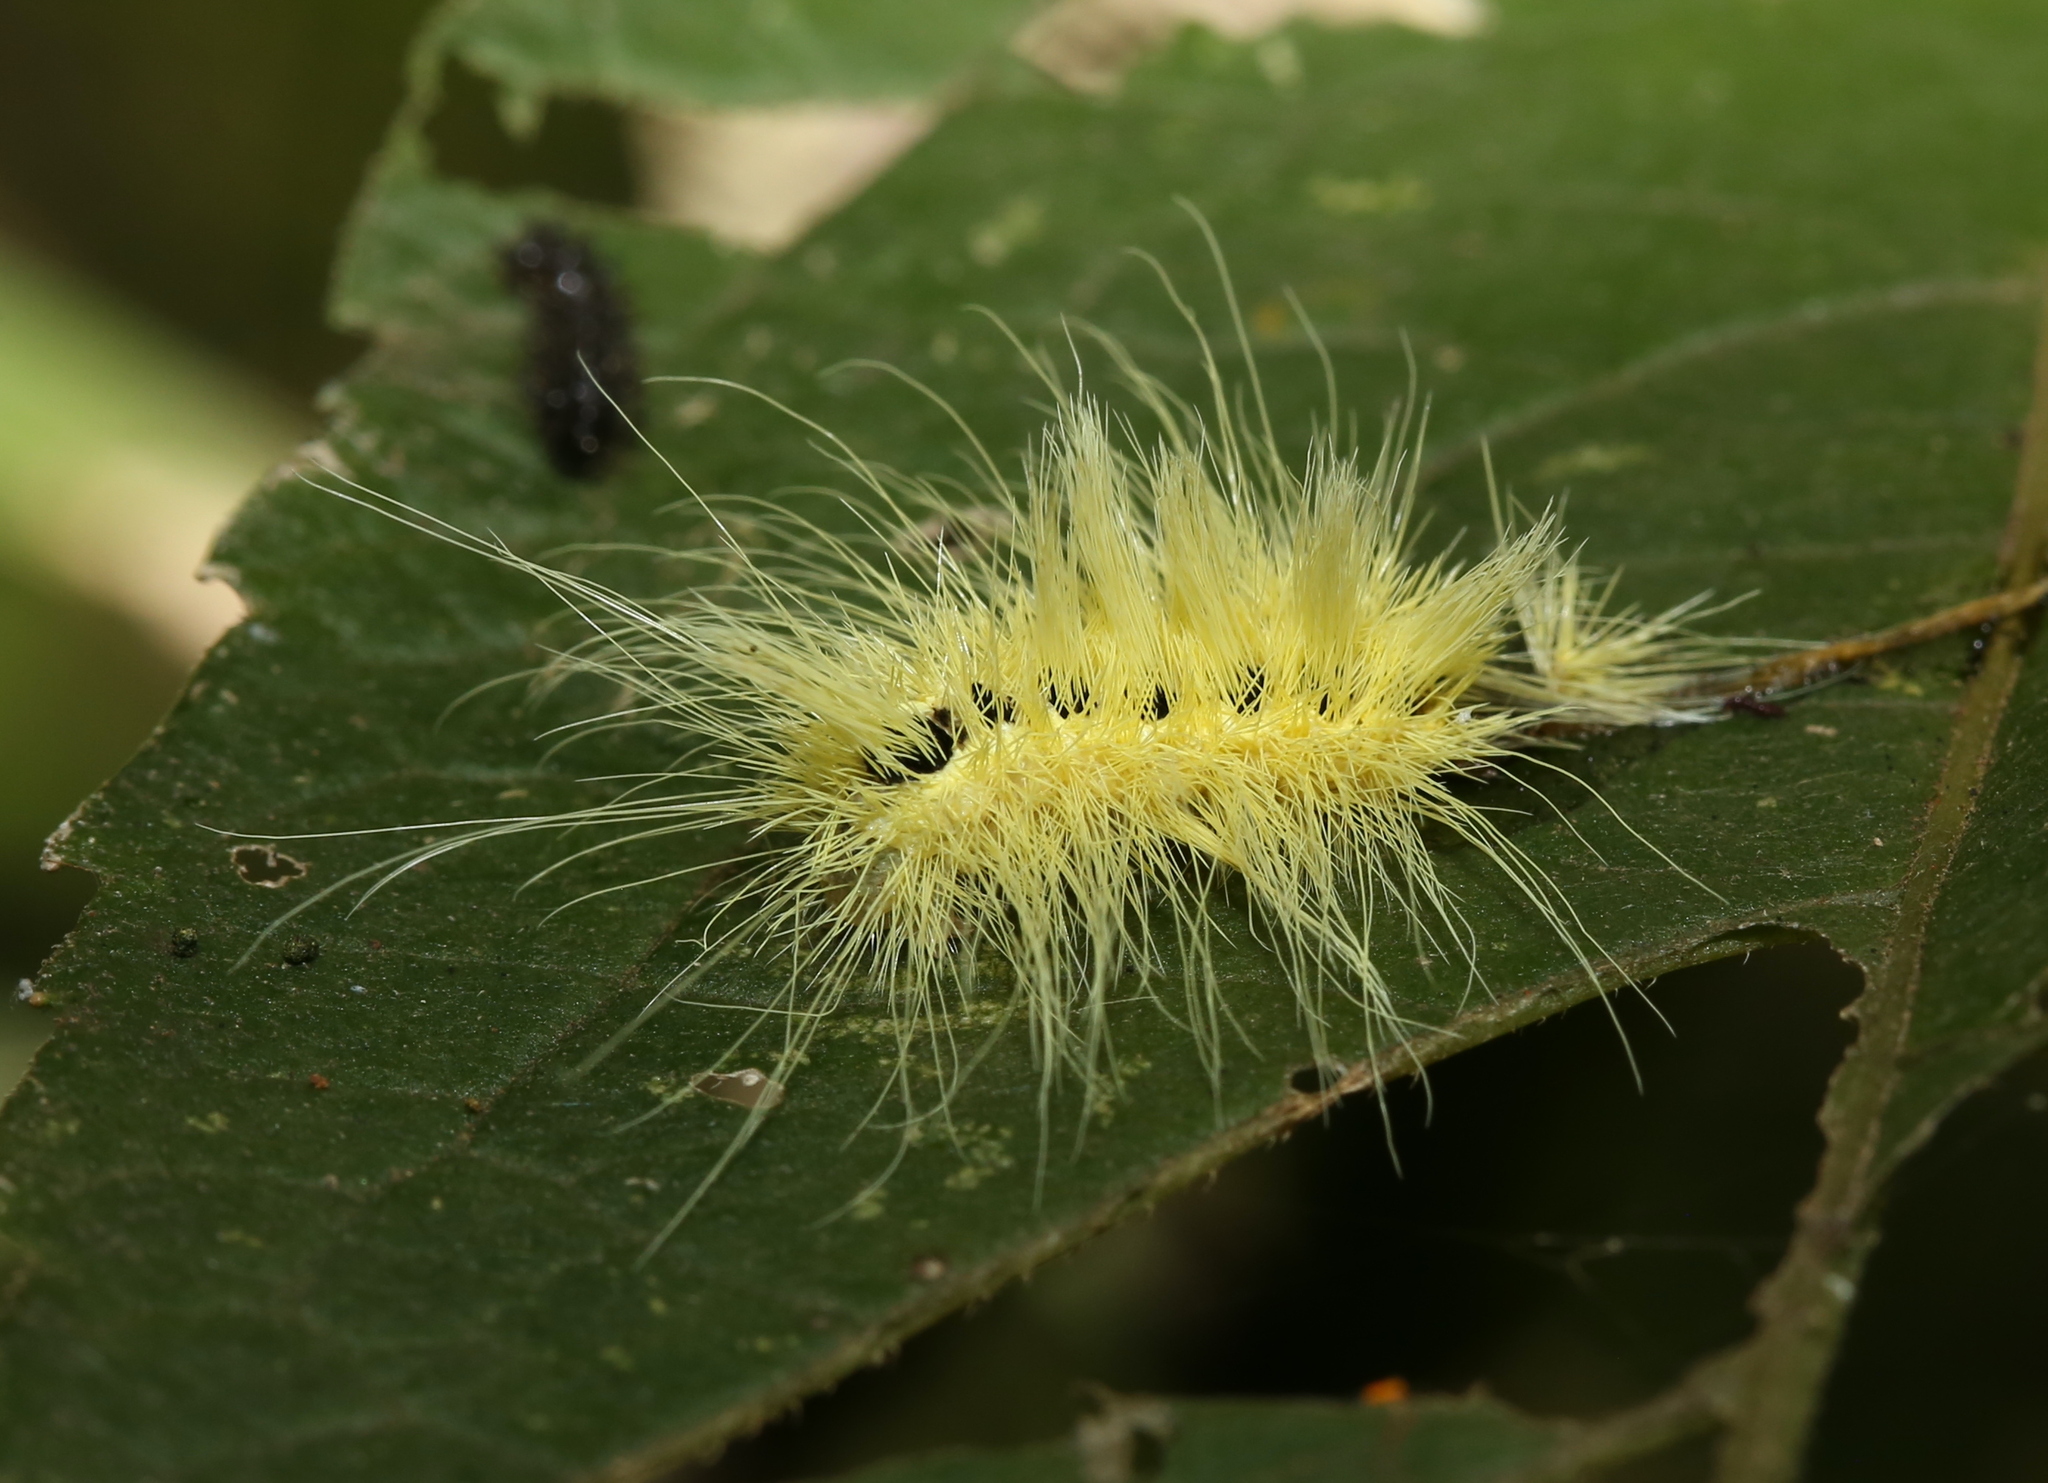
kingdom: Animalia
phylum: Arthropoda
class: Insecta
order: Lepidoptera
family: Noctuidae
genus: Acronicta
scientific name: Acronicta rubricoma
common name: Hackberry dagger
